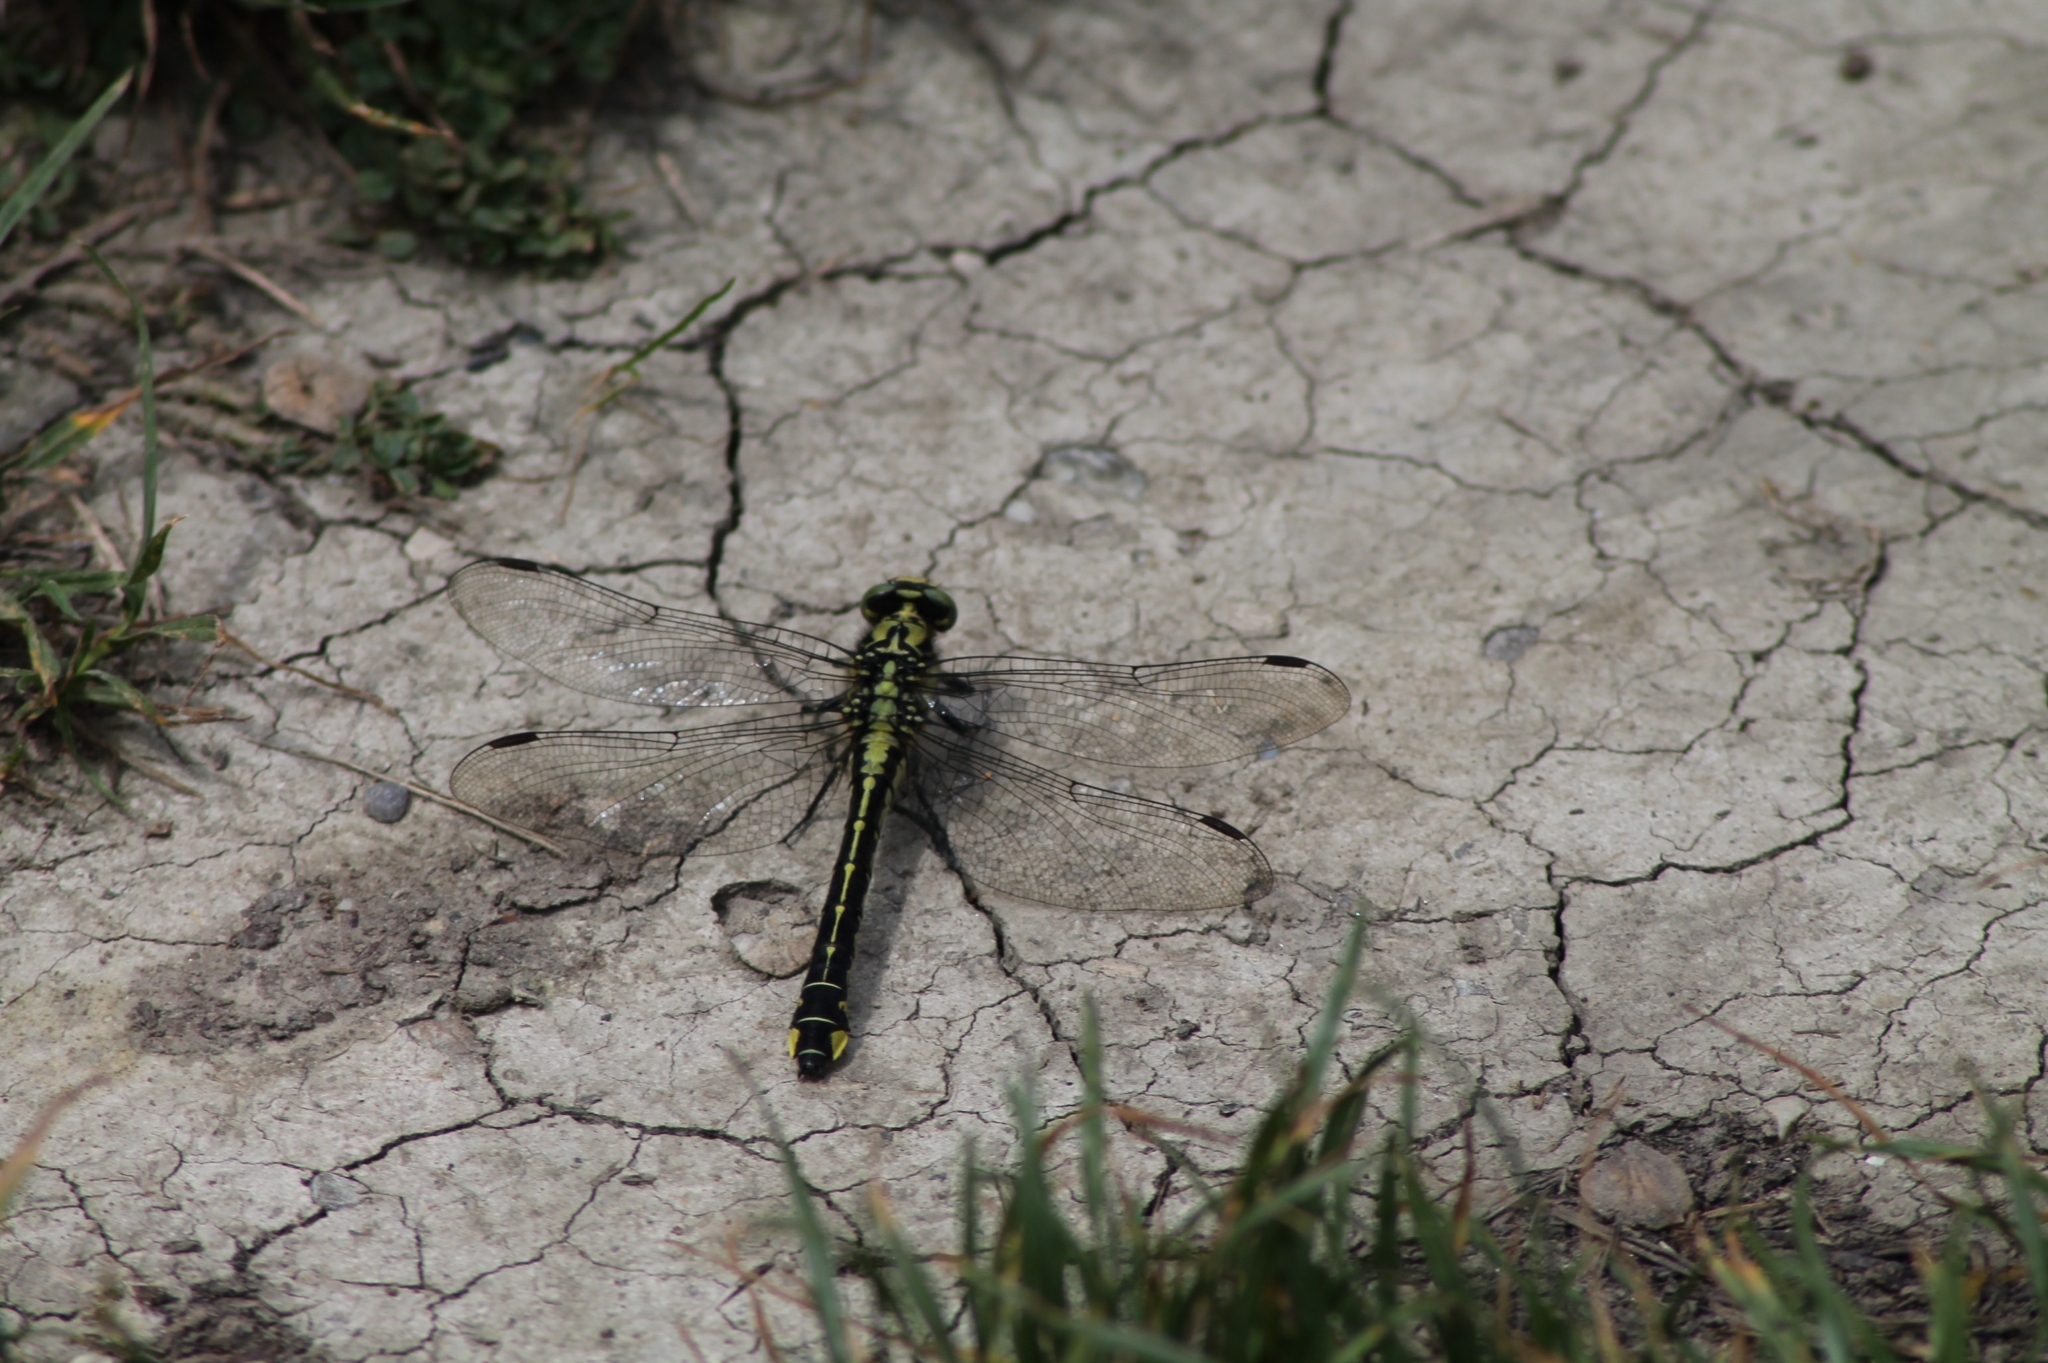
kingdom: Animalia
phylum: Arthropoda
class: Insecta
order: Odonata
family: Gomphidae
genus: Gomphus
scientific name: Gomphus vulgatissimus
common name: Club-tailed dragonfly
